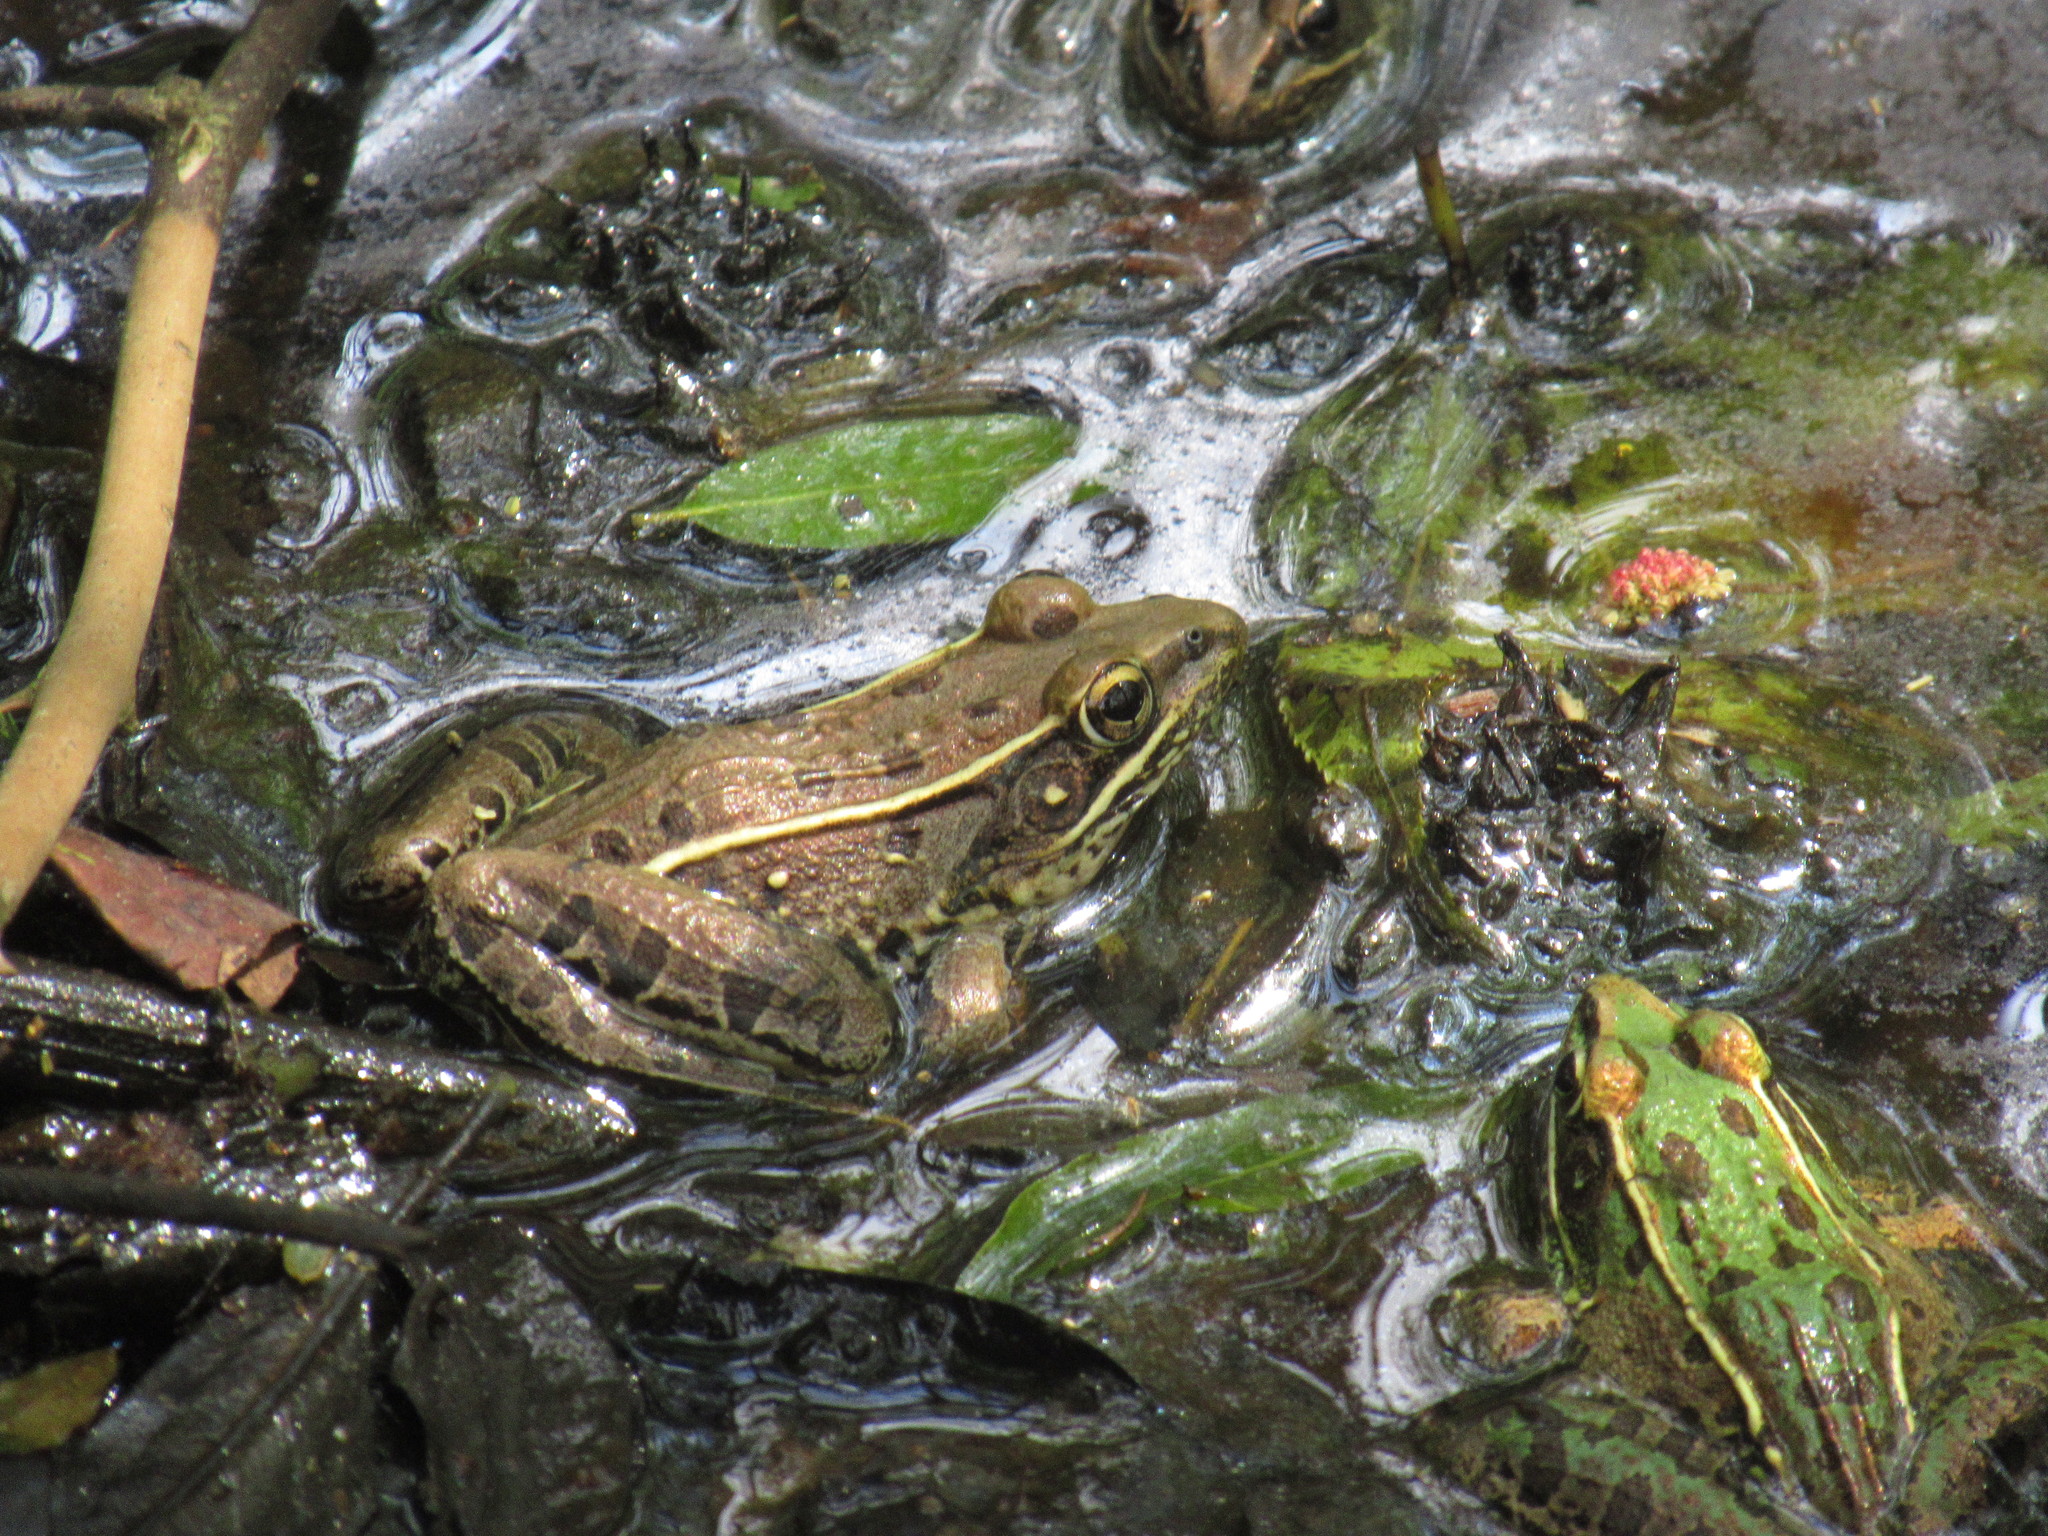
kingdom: Animalia
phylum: Chordata
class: Amphibia
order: Anura
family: Ranidae
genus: Lithobates
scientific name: Lithobates sphenocephalus
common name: Southern leopard frog
